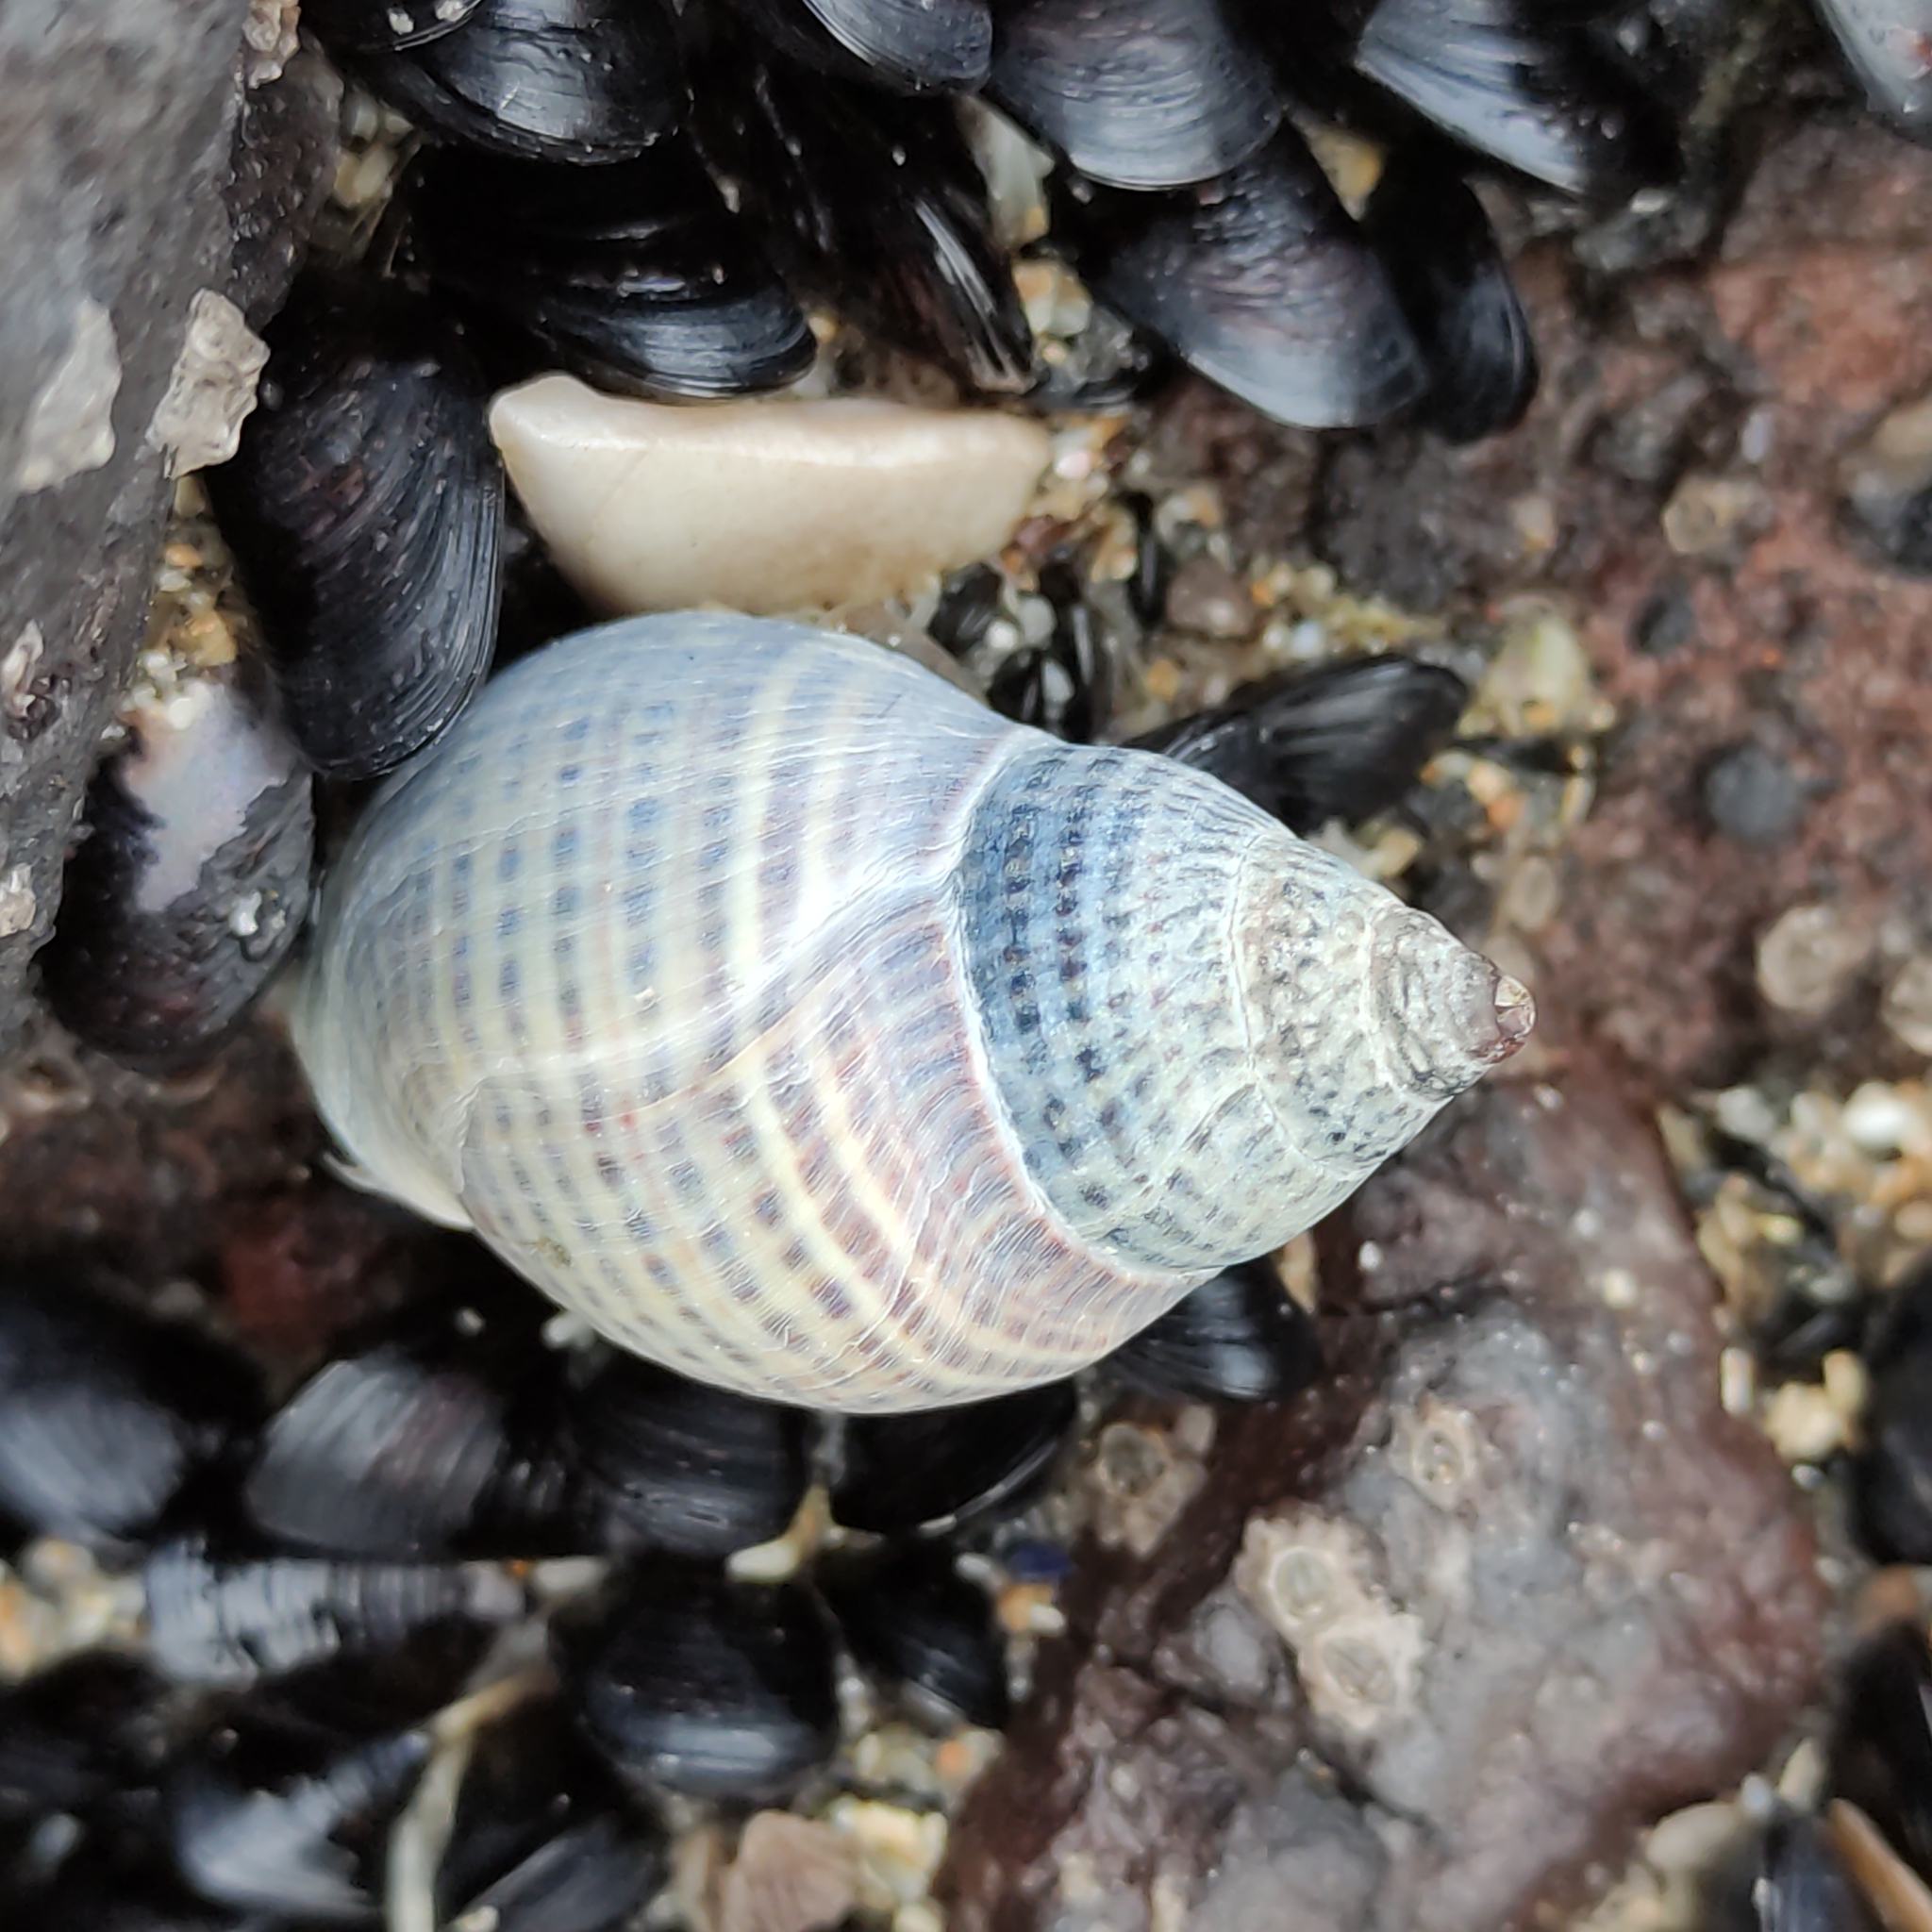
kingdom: Animalia
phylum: Mollusca
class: Gastropoda
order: Neogastropoda
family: Cominellidae
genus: Cominella
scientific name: Cominella maculosa
